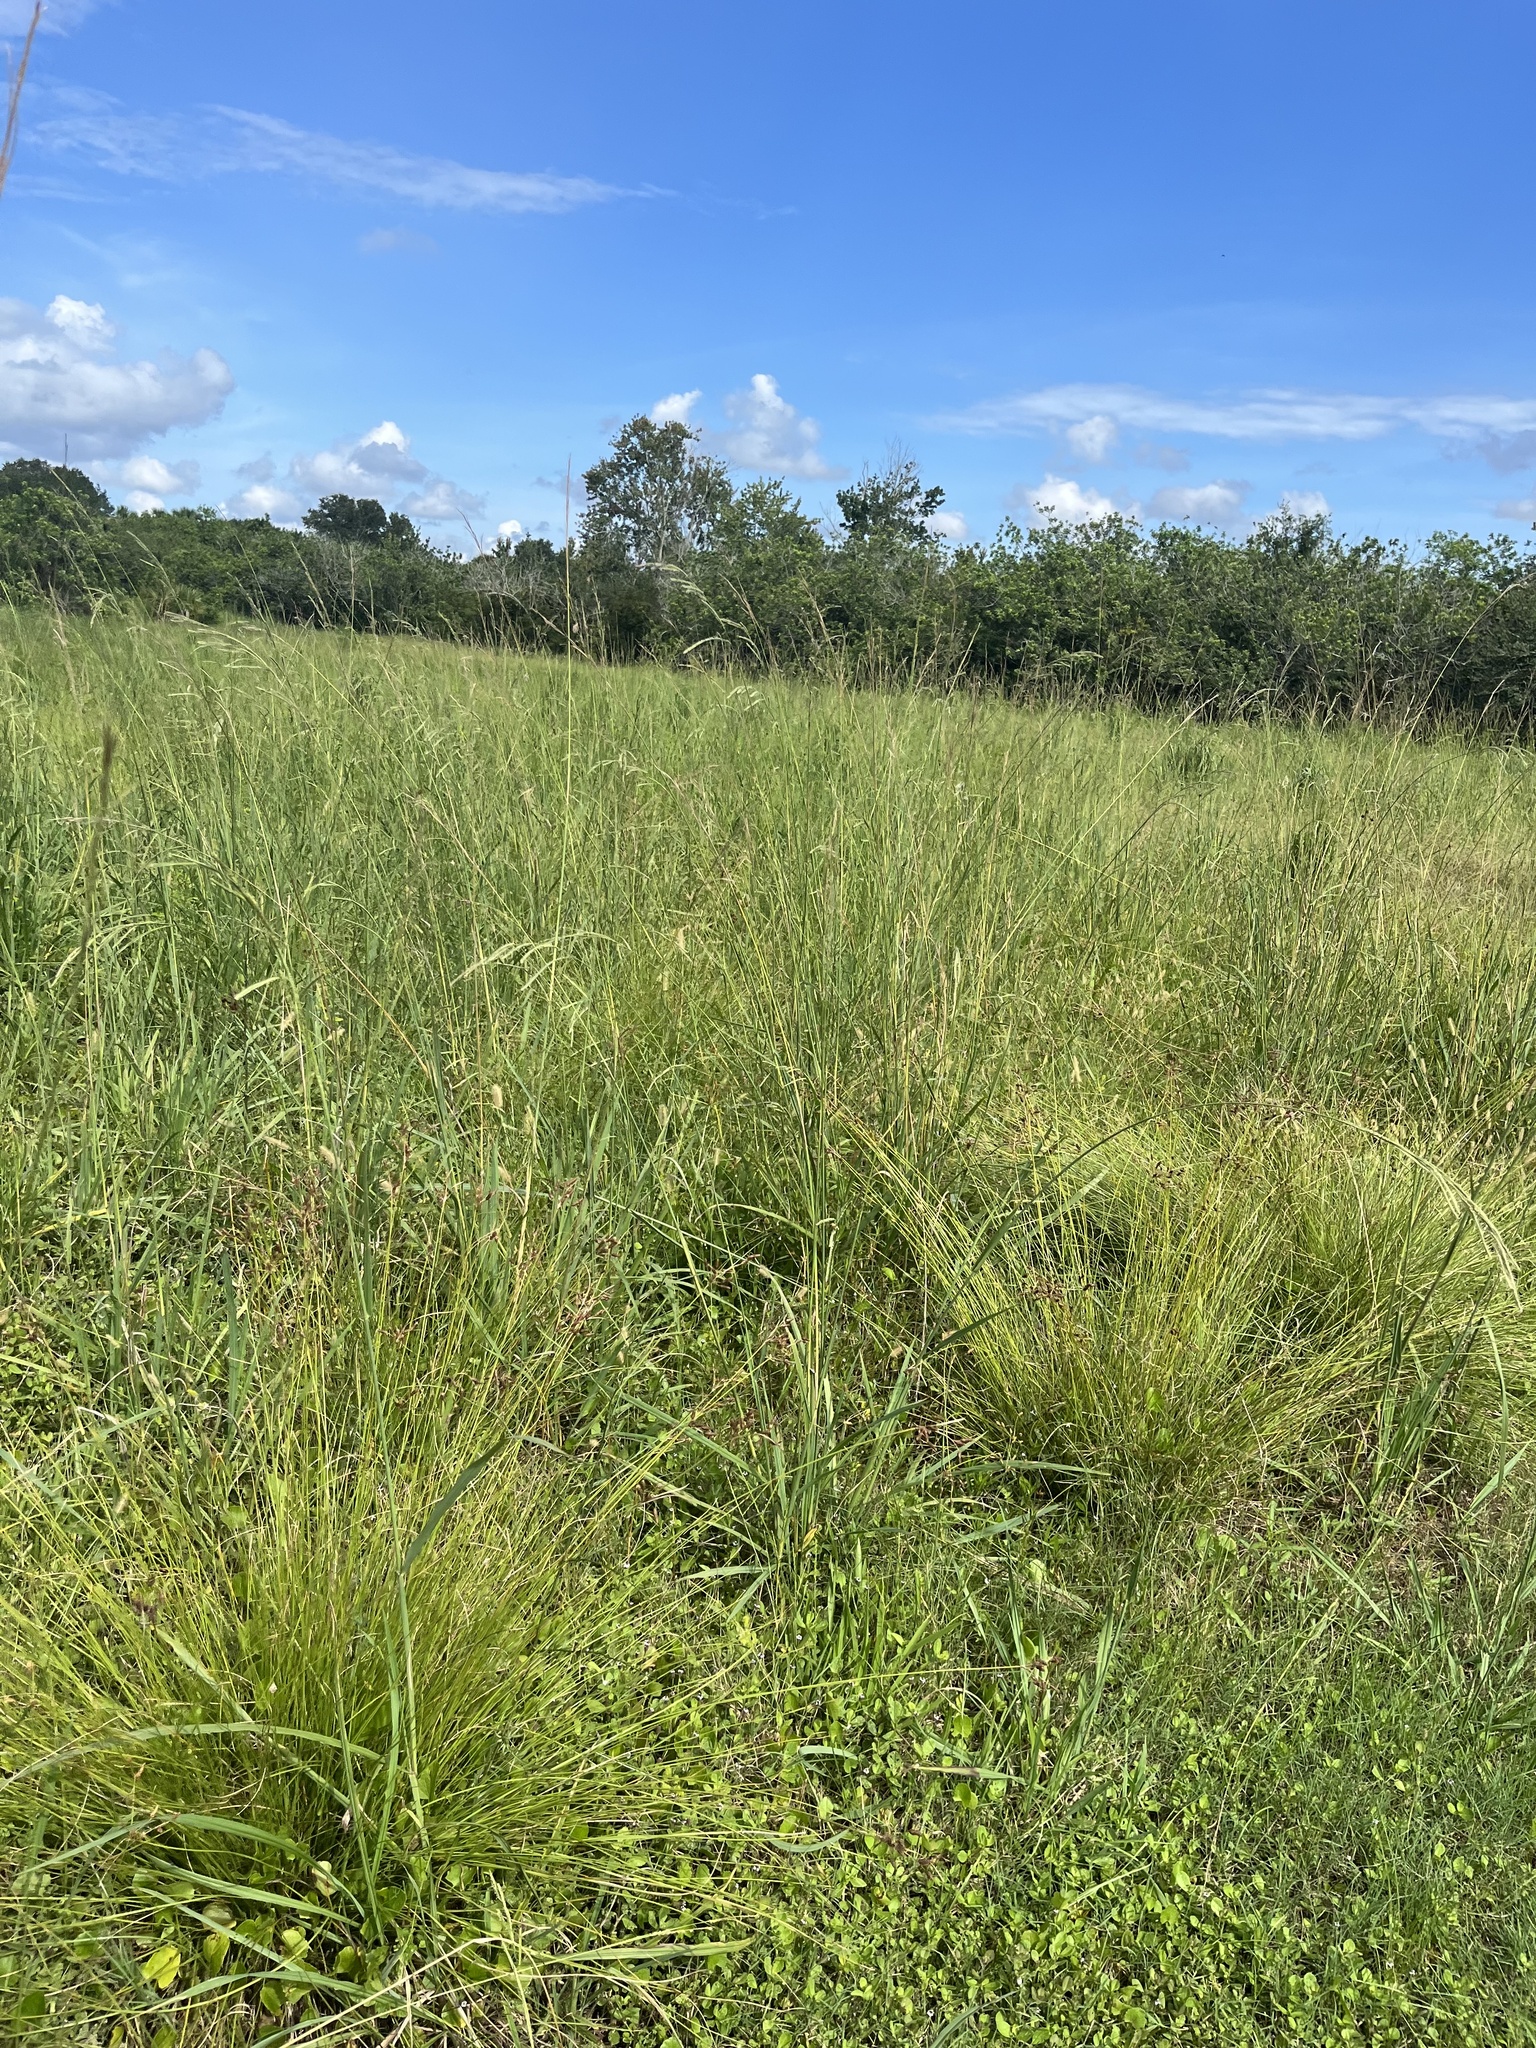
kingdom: Plantae
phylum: Tracheophyta
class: Liliopsida
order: Poales
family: Cyperaceae
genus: Fimbristylis
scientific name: Fimbristylis spadicea
